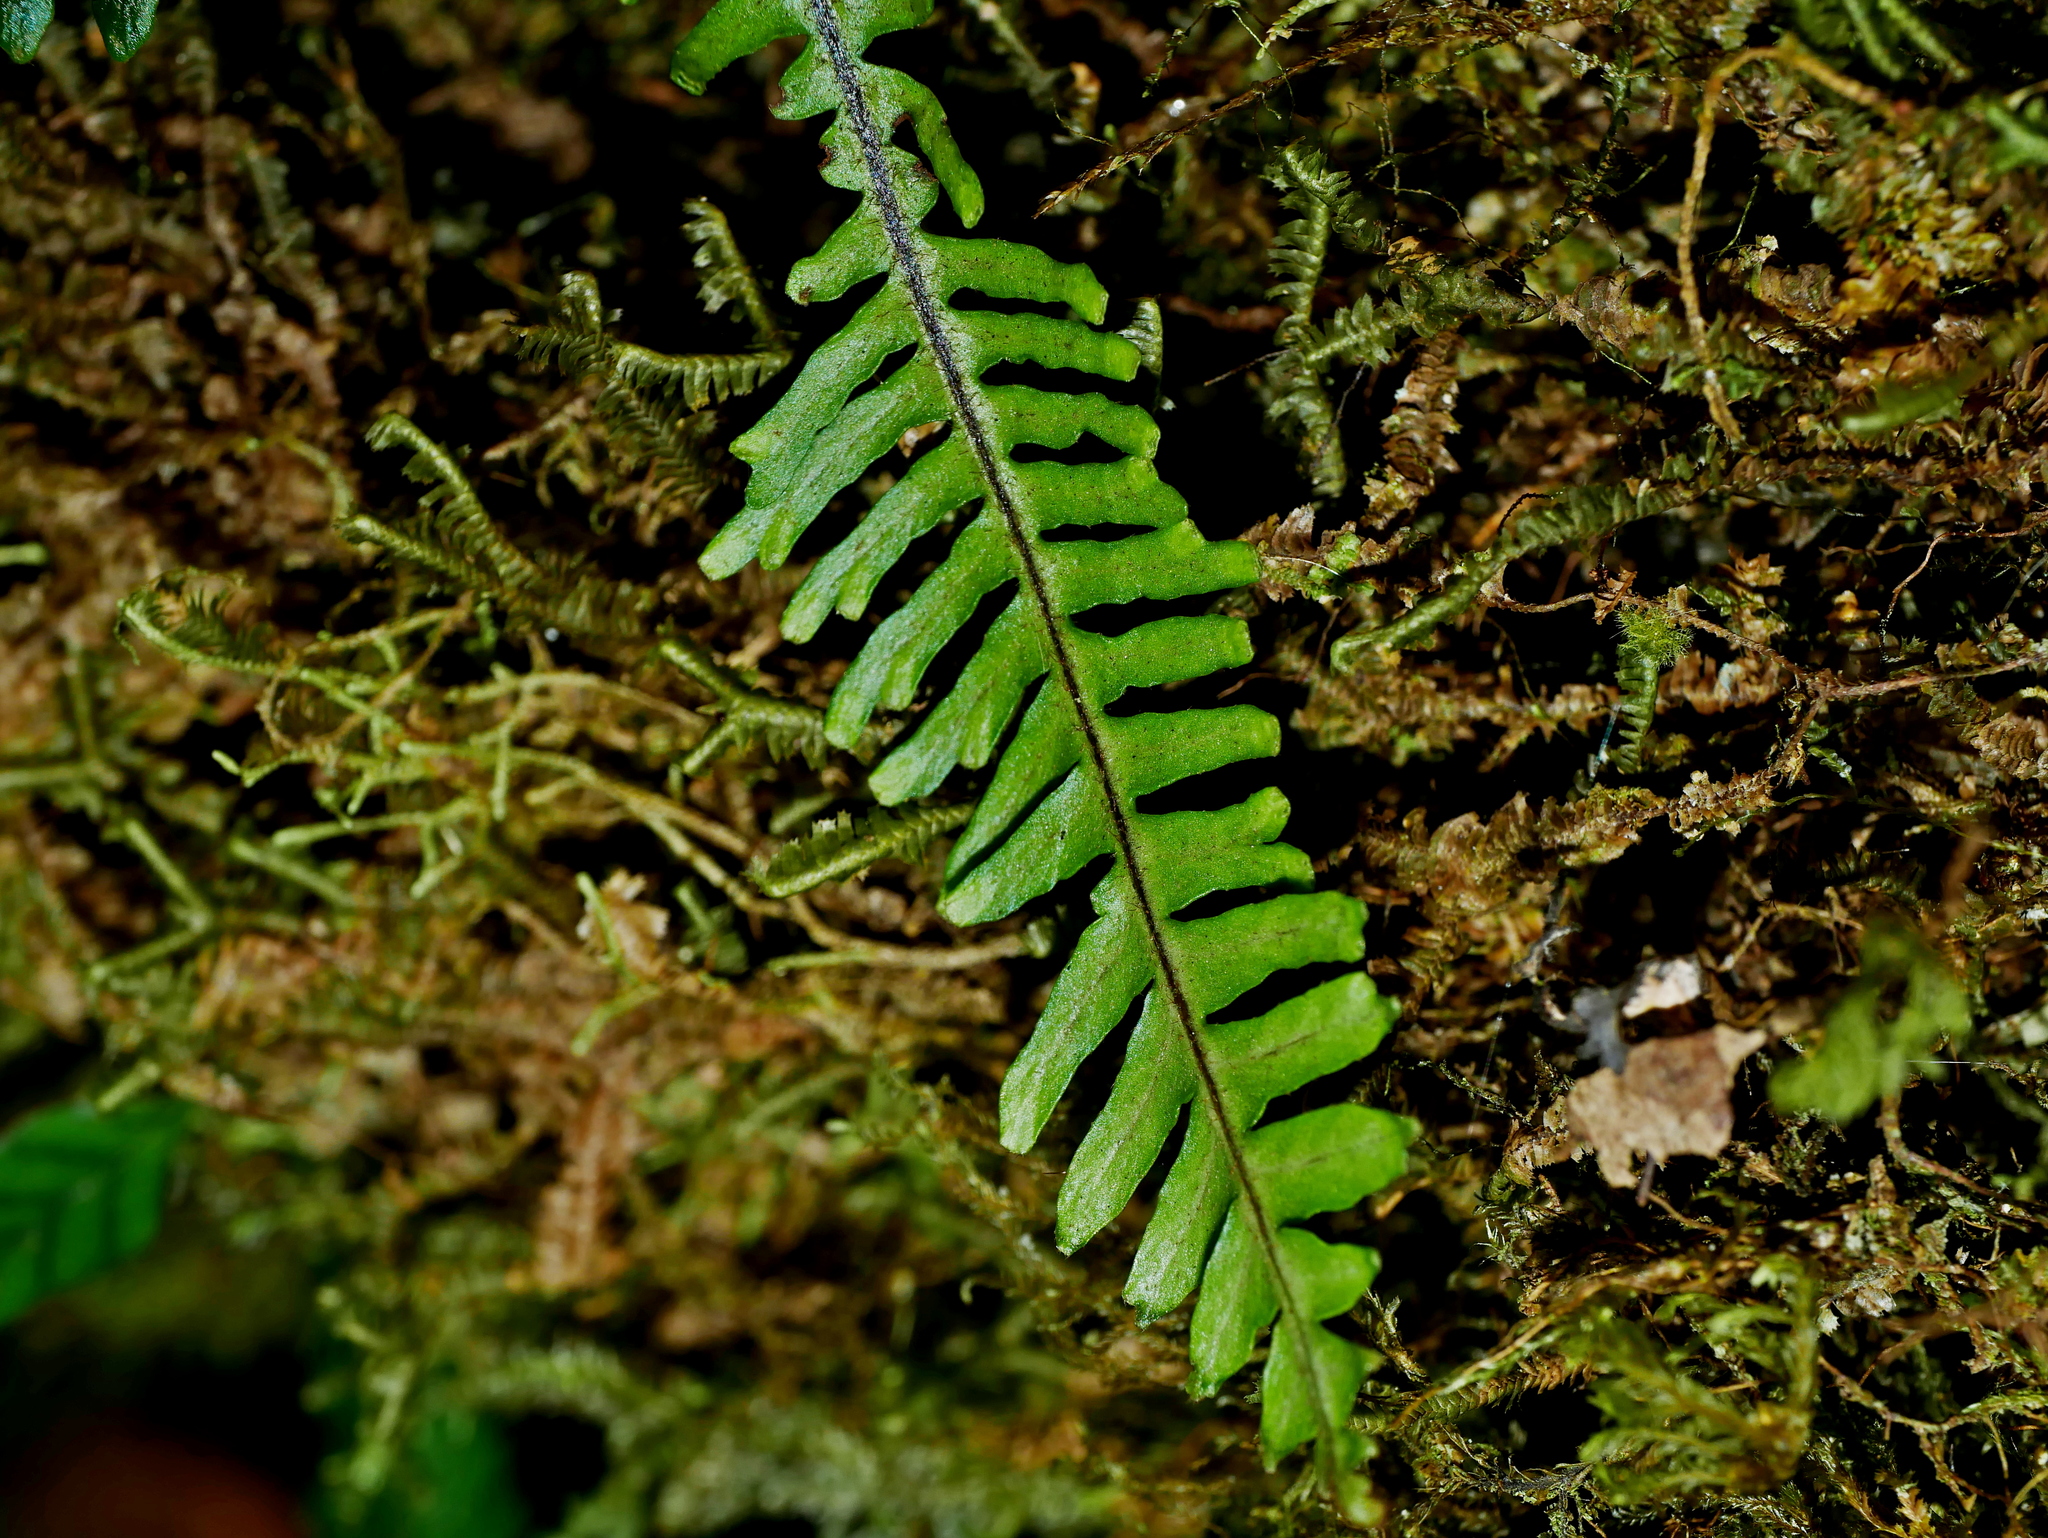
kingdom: Plantae
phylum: Tracheophyta
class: Polypodiopsida
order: Polypodiales
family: Polypodiaceae
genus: Prosaptia
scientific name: Prosaptia formosana
